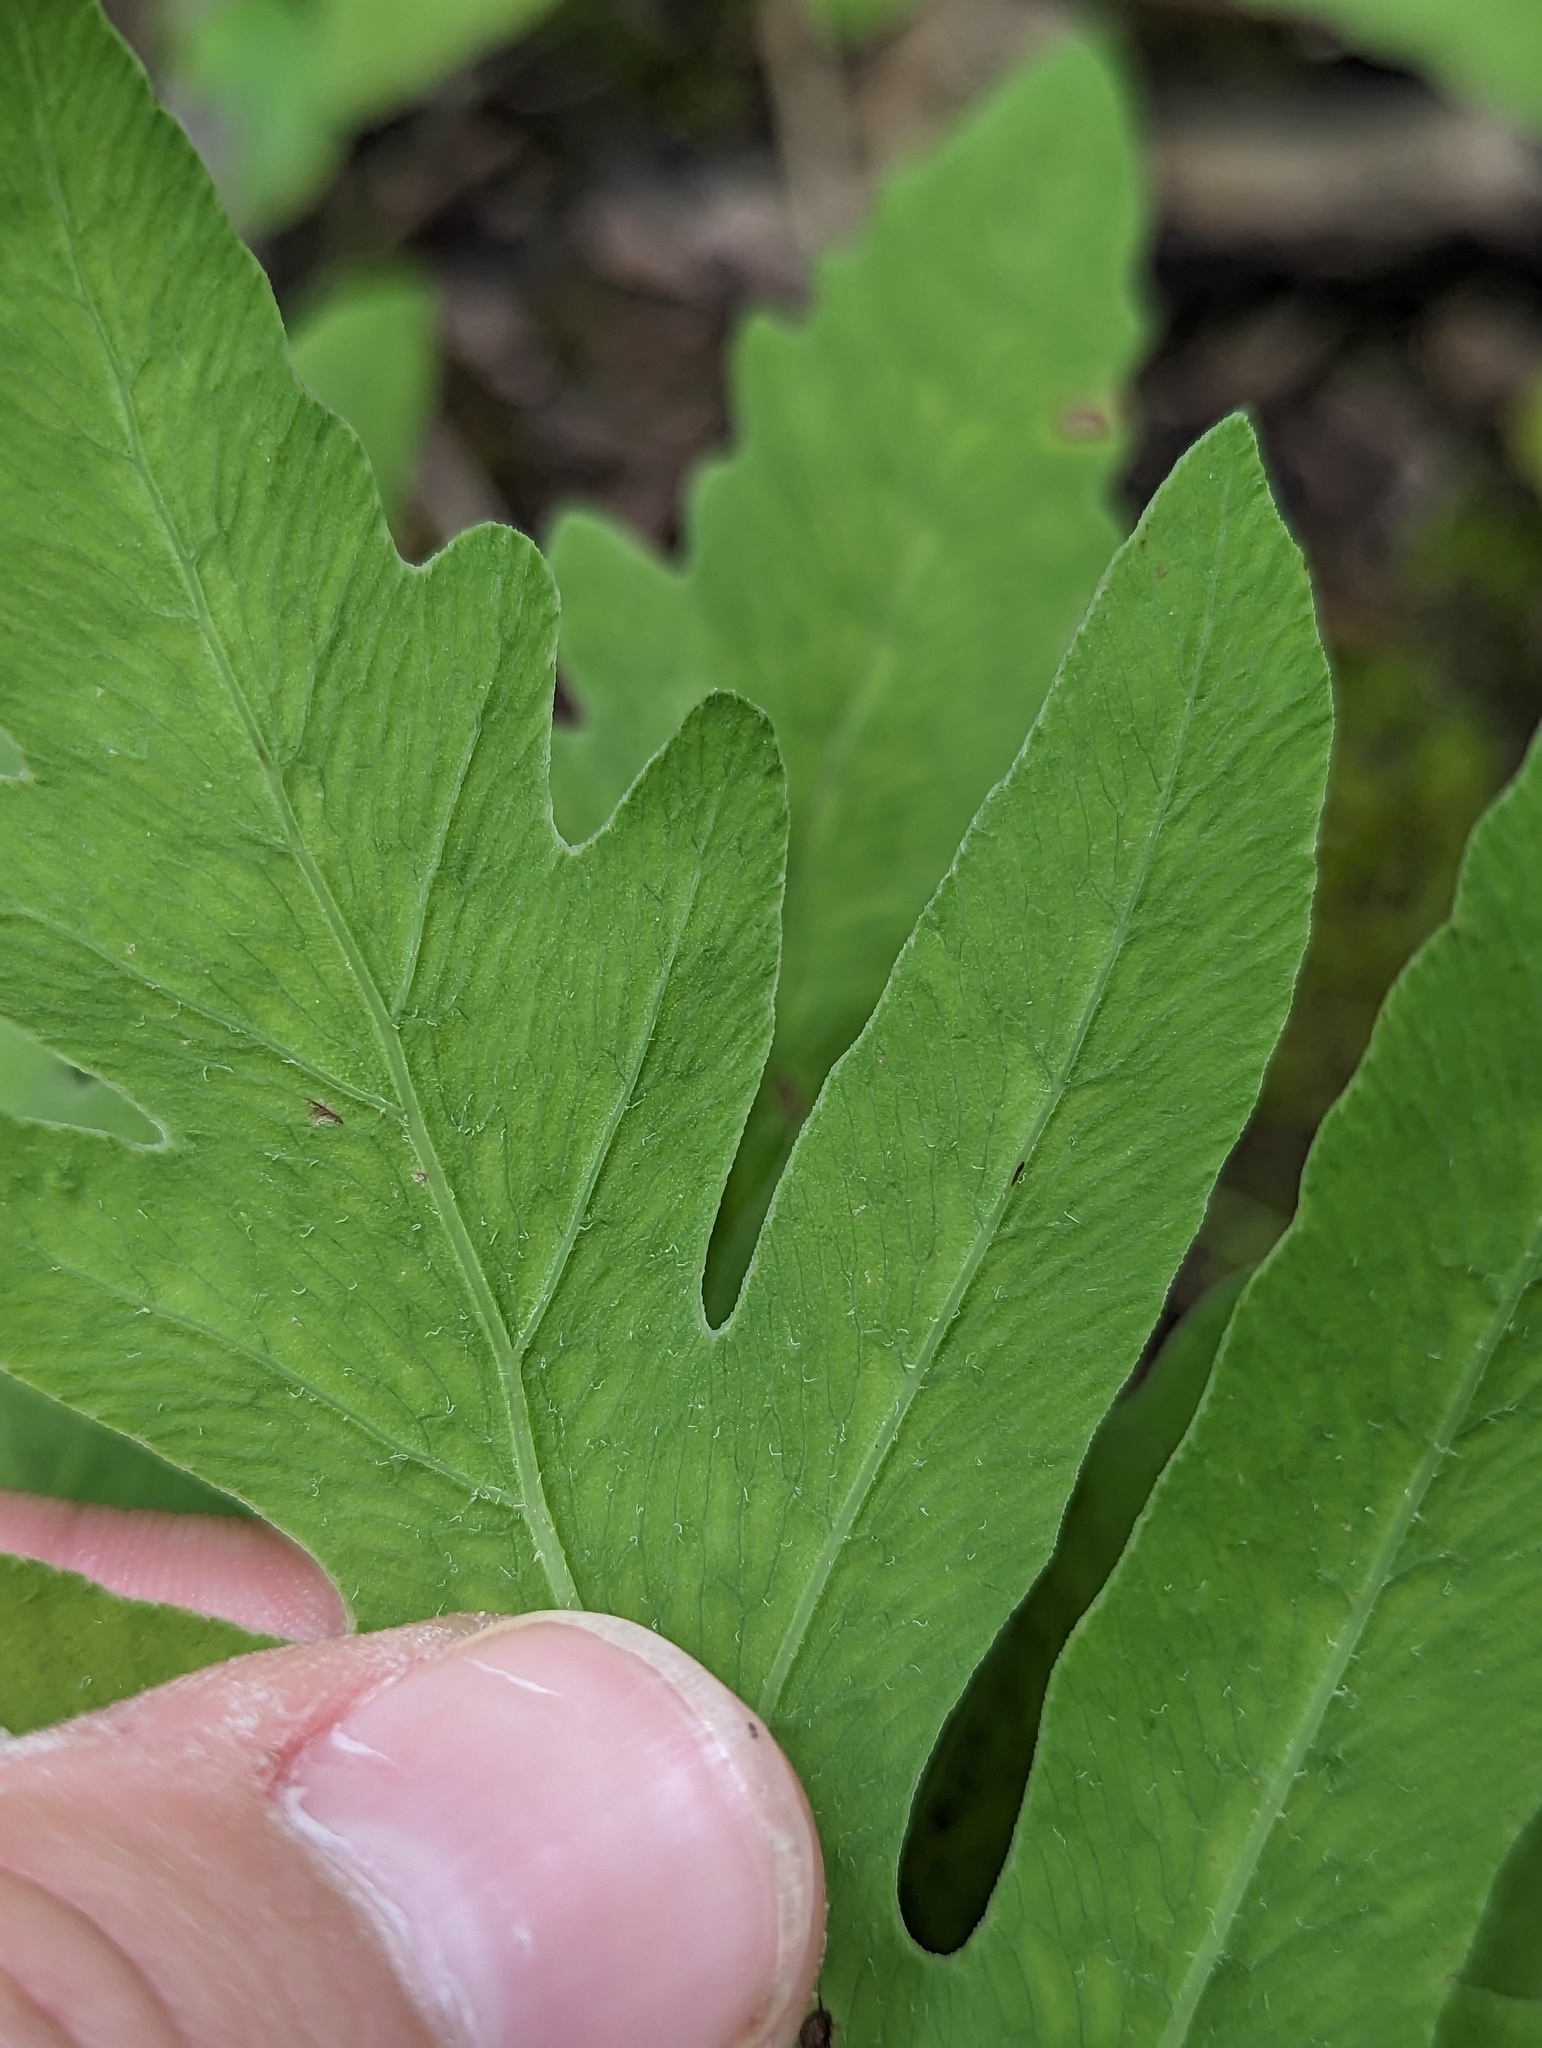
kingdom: Plantae
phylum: Tracheophyta
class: Polypodiopsida
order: Polypodiales
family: Onocleaceae
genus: Onoclea
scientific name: Onoclea sensibilis
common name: Sensitive fern
